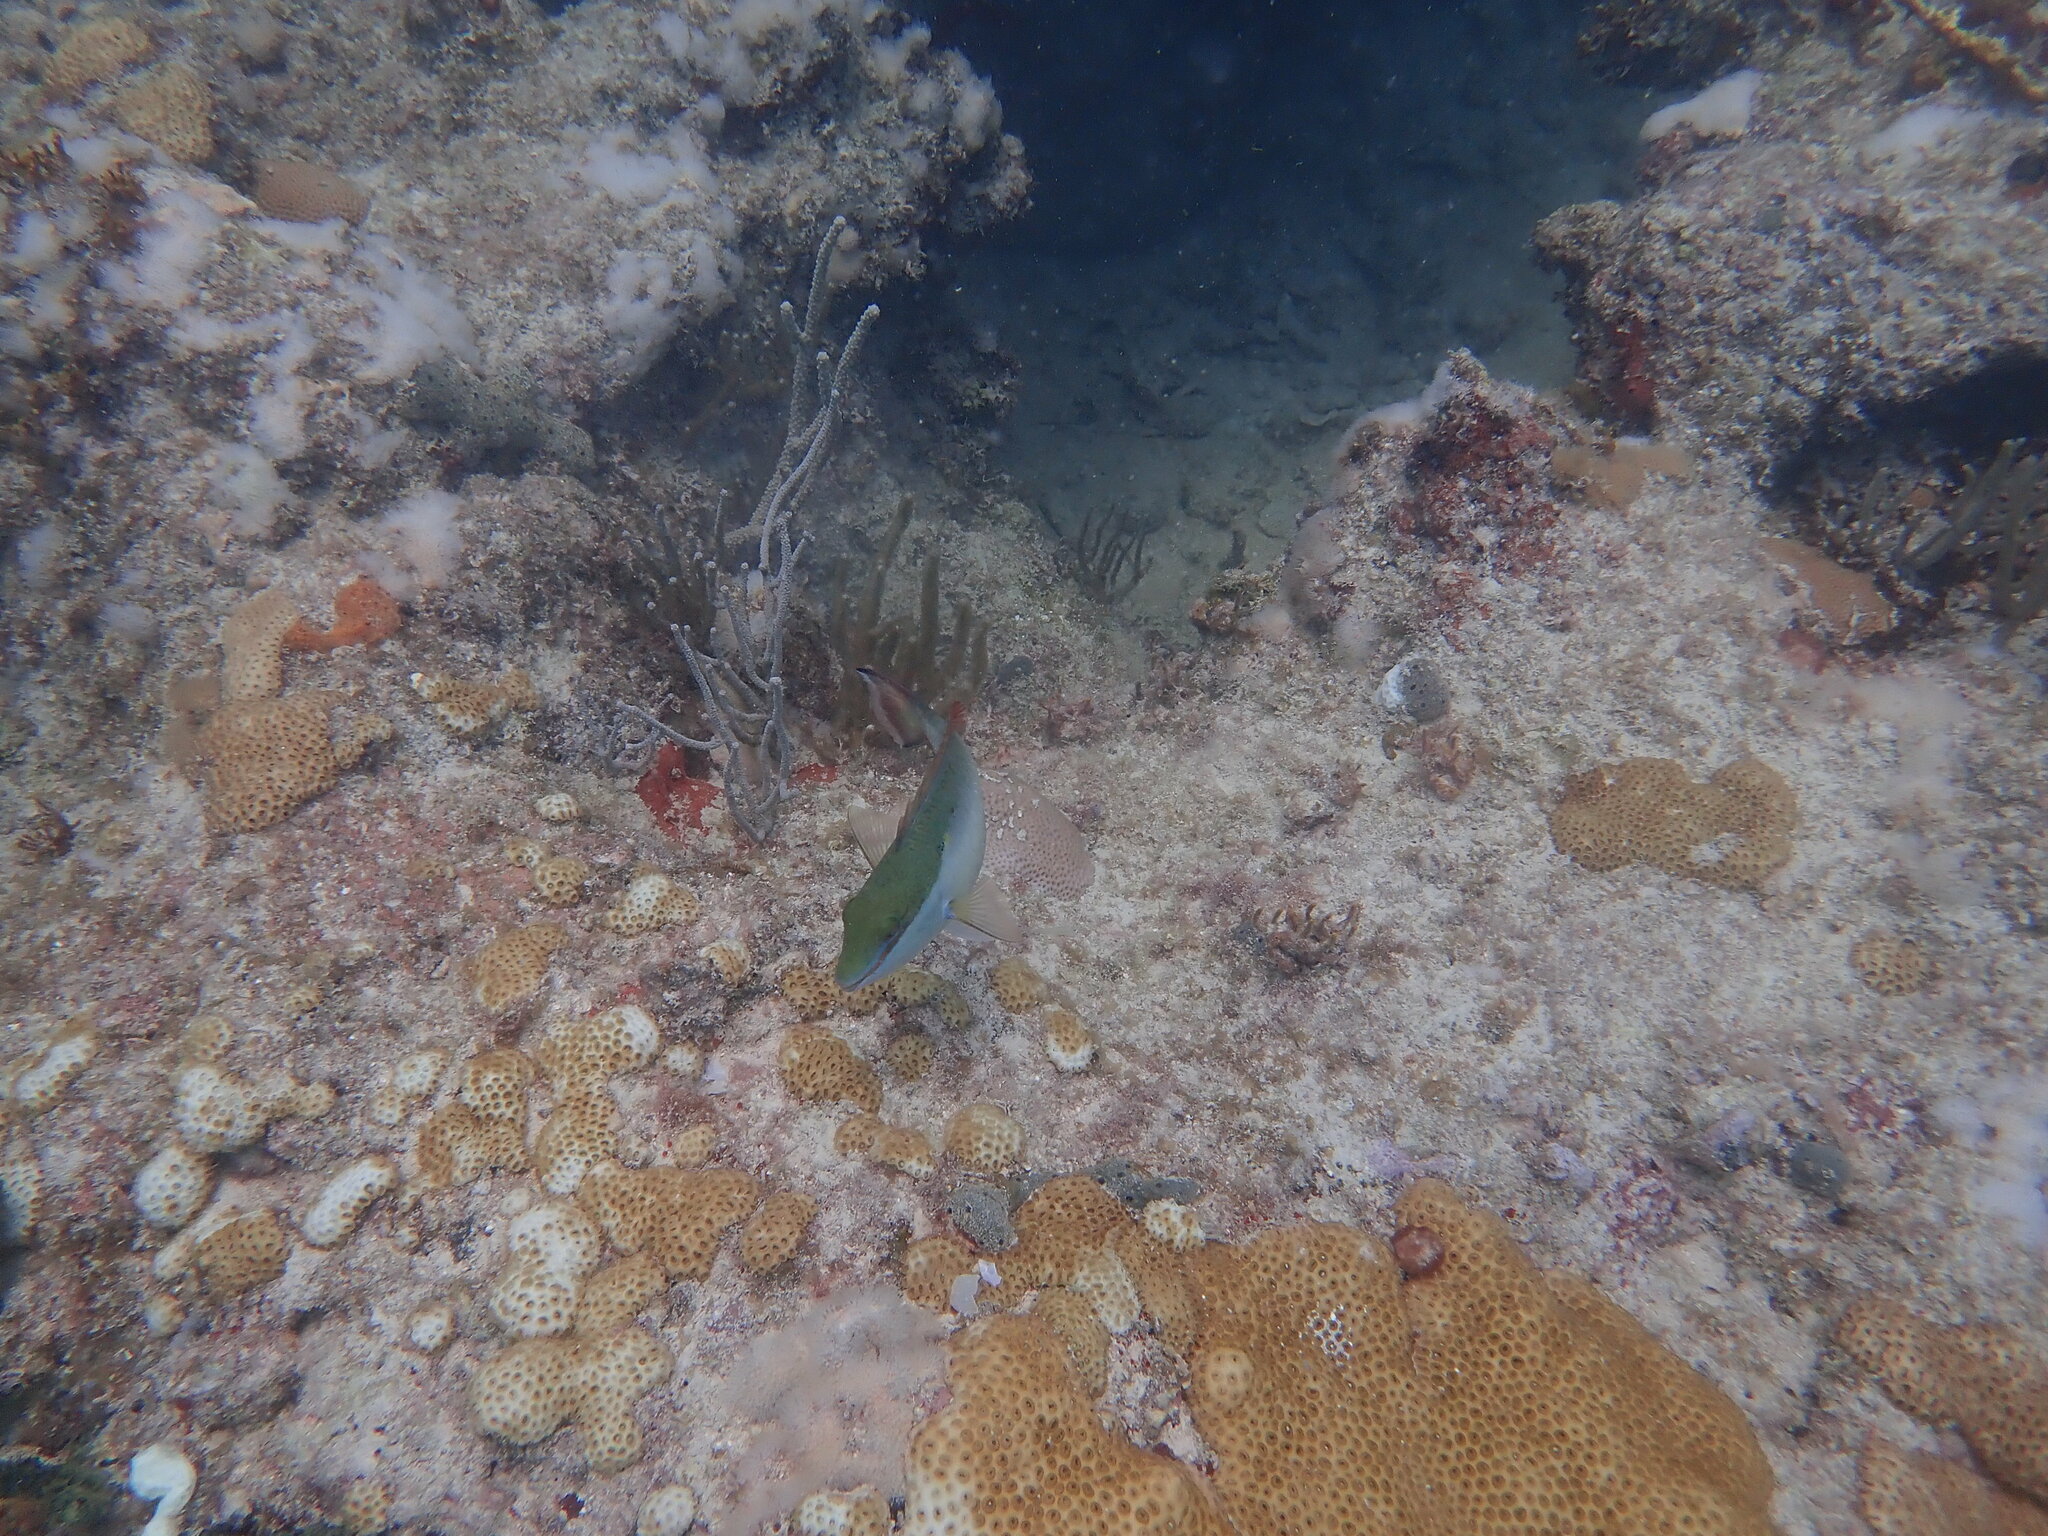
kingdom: Animalia
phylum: Chordata
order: Perciformes
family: Scaridae
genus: Sparisoma
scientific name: Sparisoma aurofrenatum
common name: Redband parrotfish
